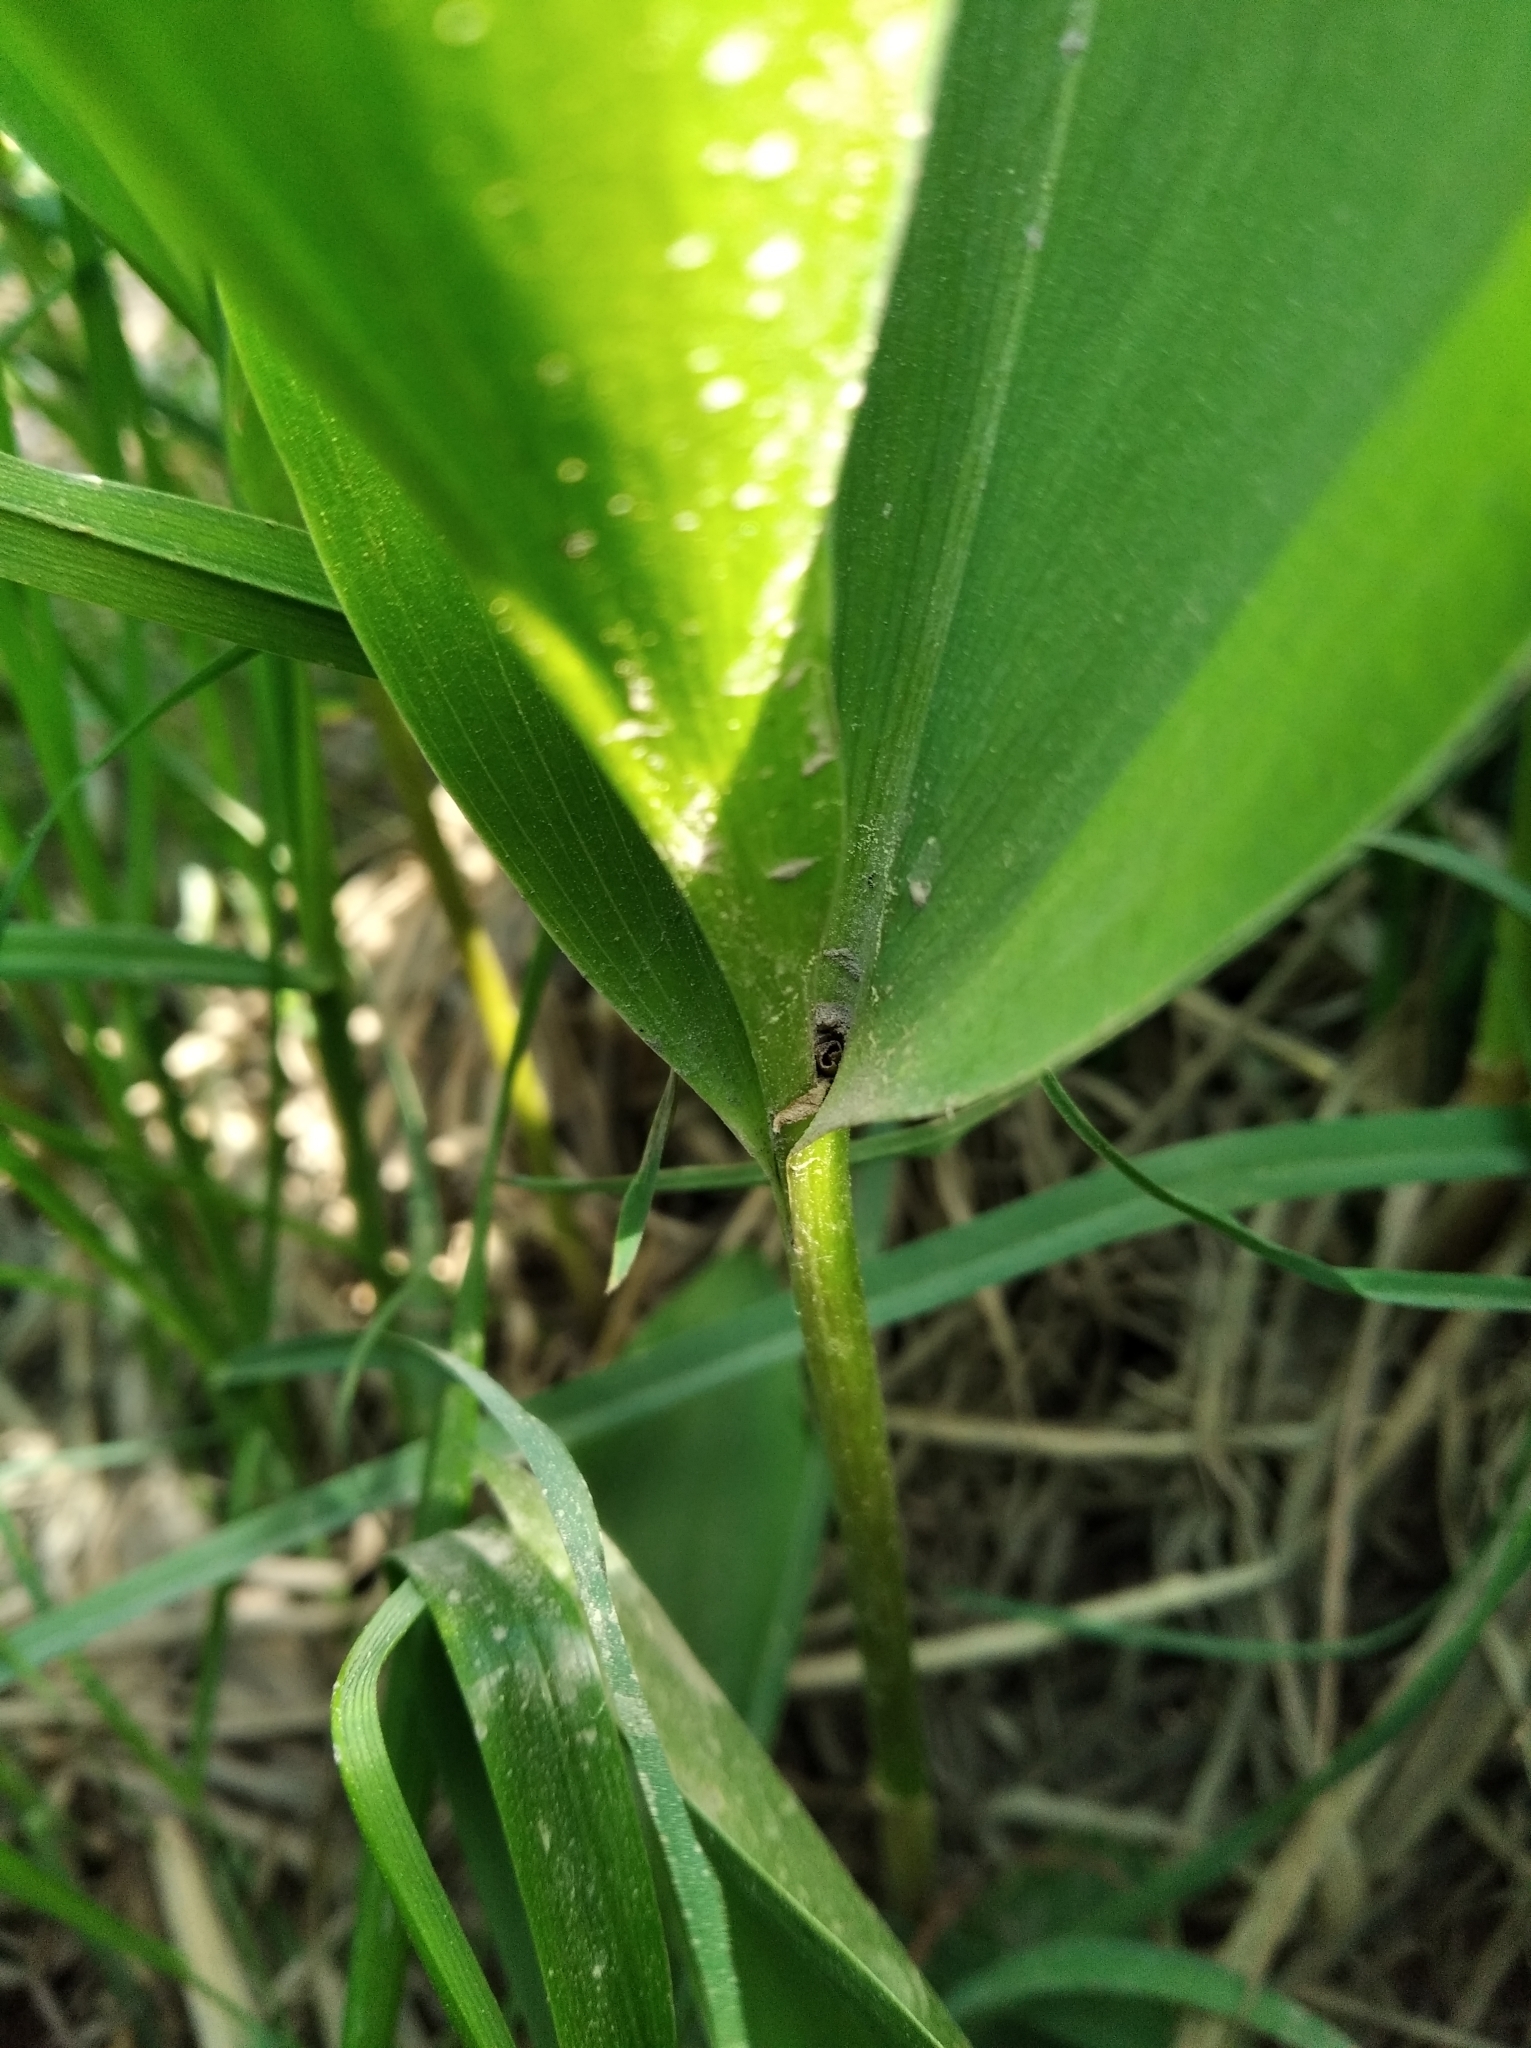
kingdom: Plantae
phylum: Tracheophyta
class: Liliopsida
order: Asparagales
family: Asparagaceae
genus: Convallaria
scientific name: Convallaria majalis
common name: Lily-of-the-valley
